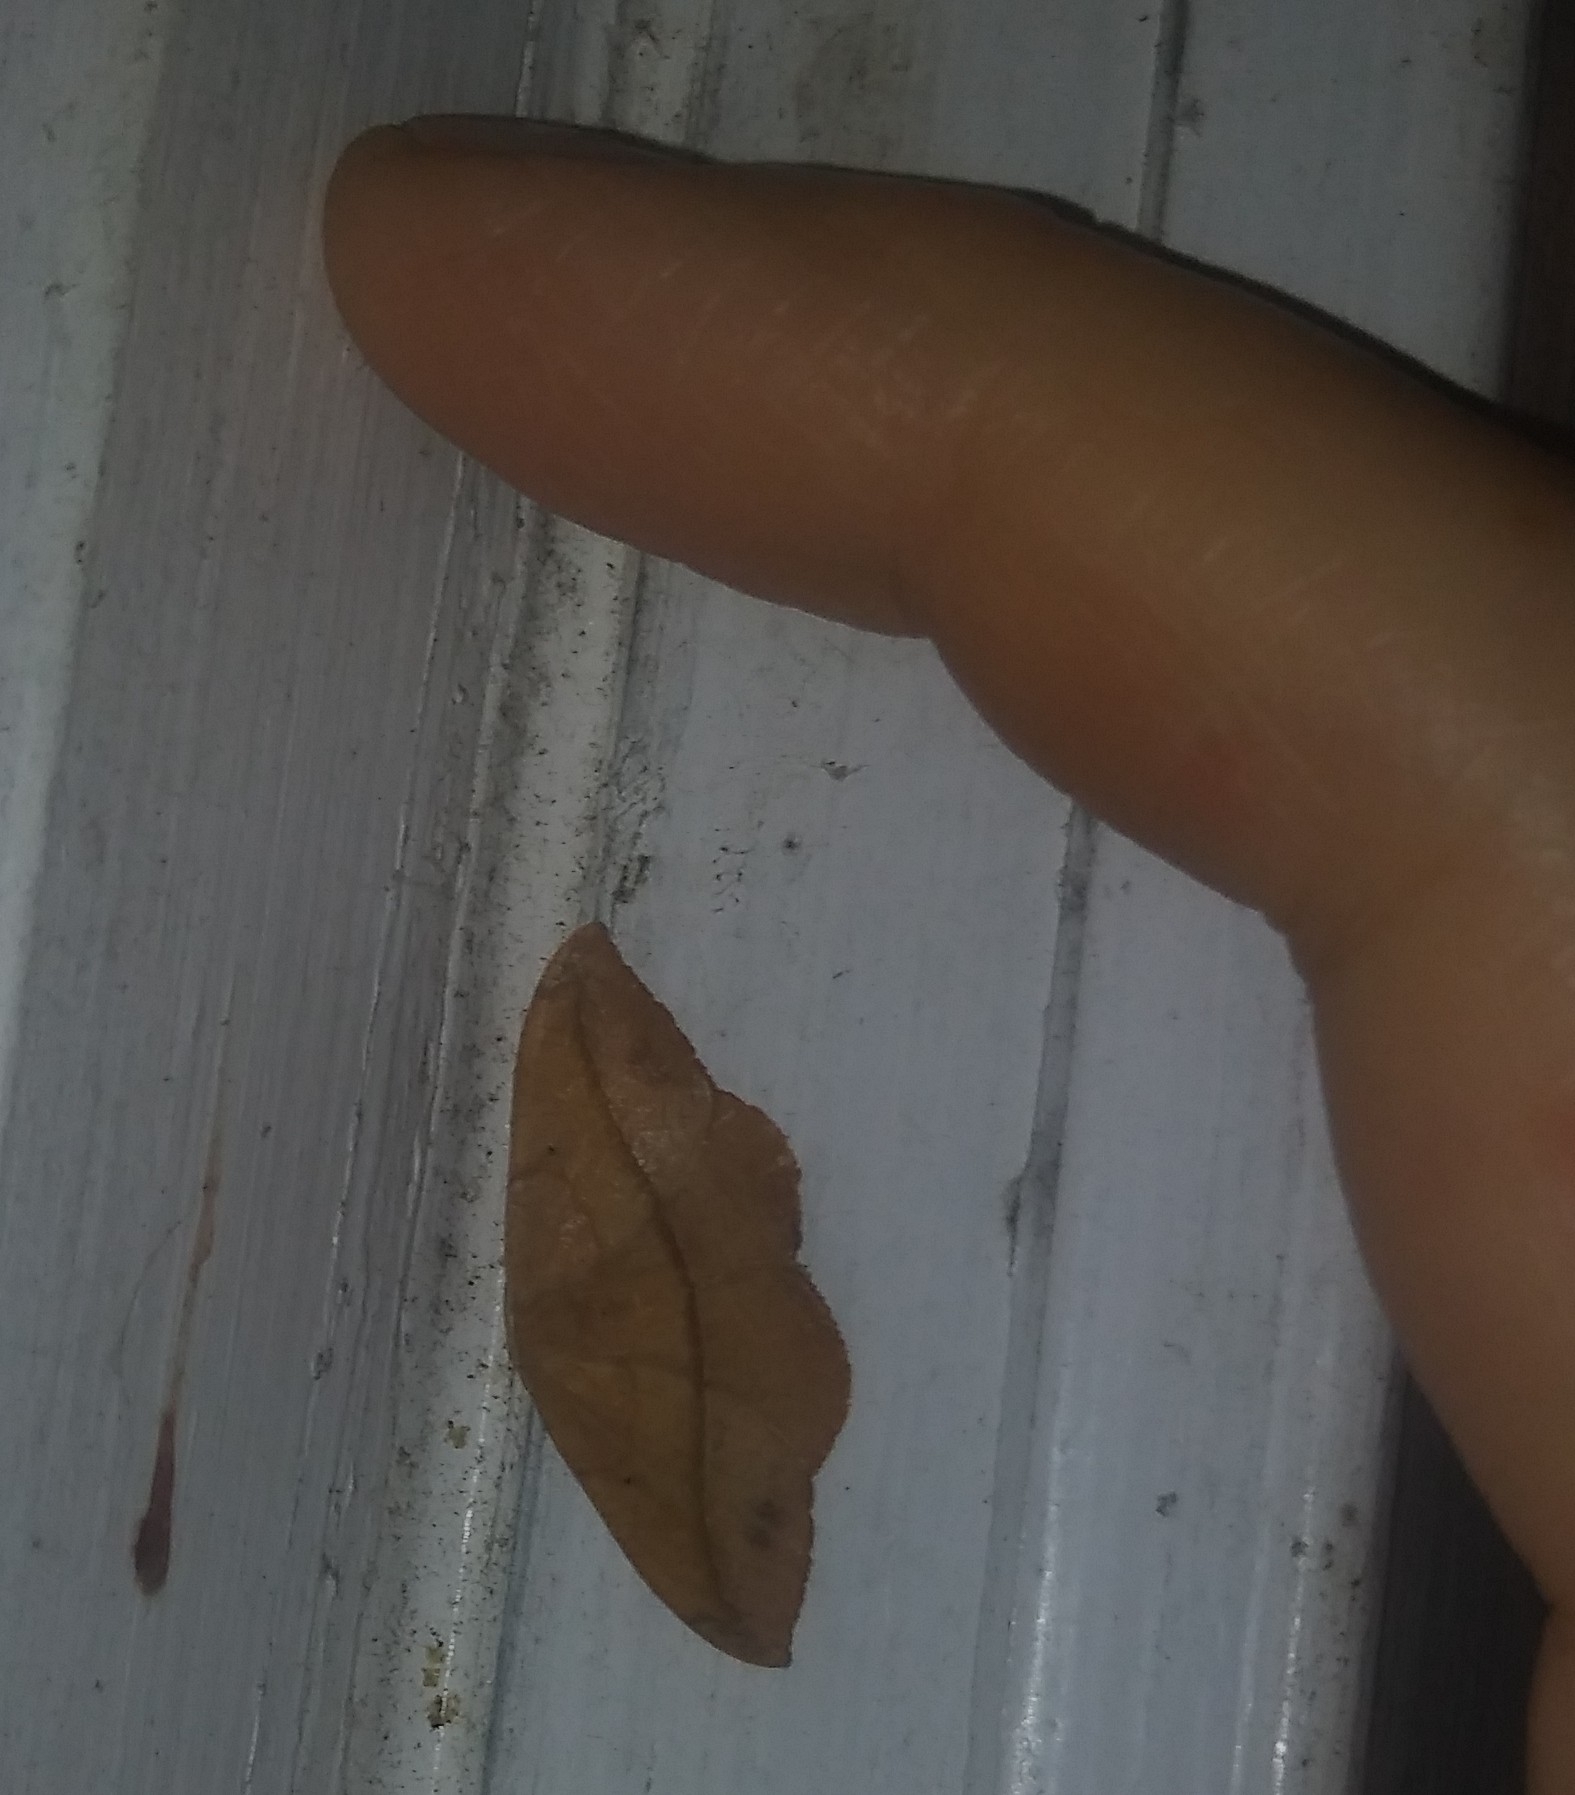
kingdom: Animalia
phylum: Arthropoda
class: Insecta
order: Lepidoptera
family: Geometridae
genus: Patalene
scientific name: Patalene olyzonaria
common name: Juniper geometer moth
